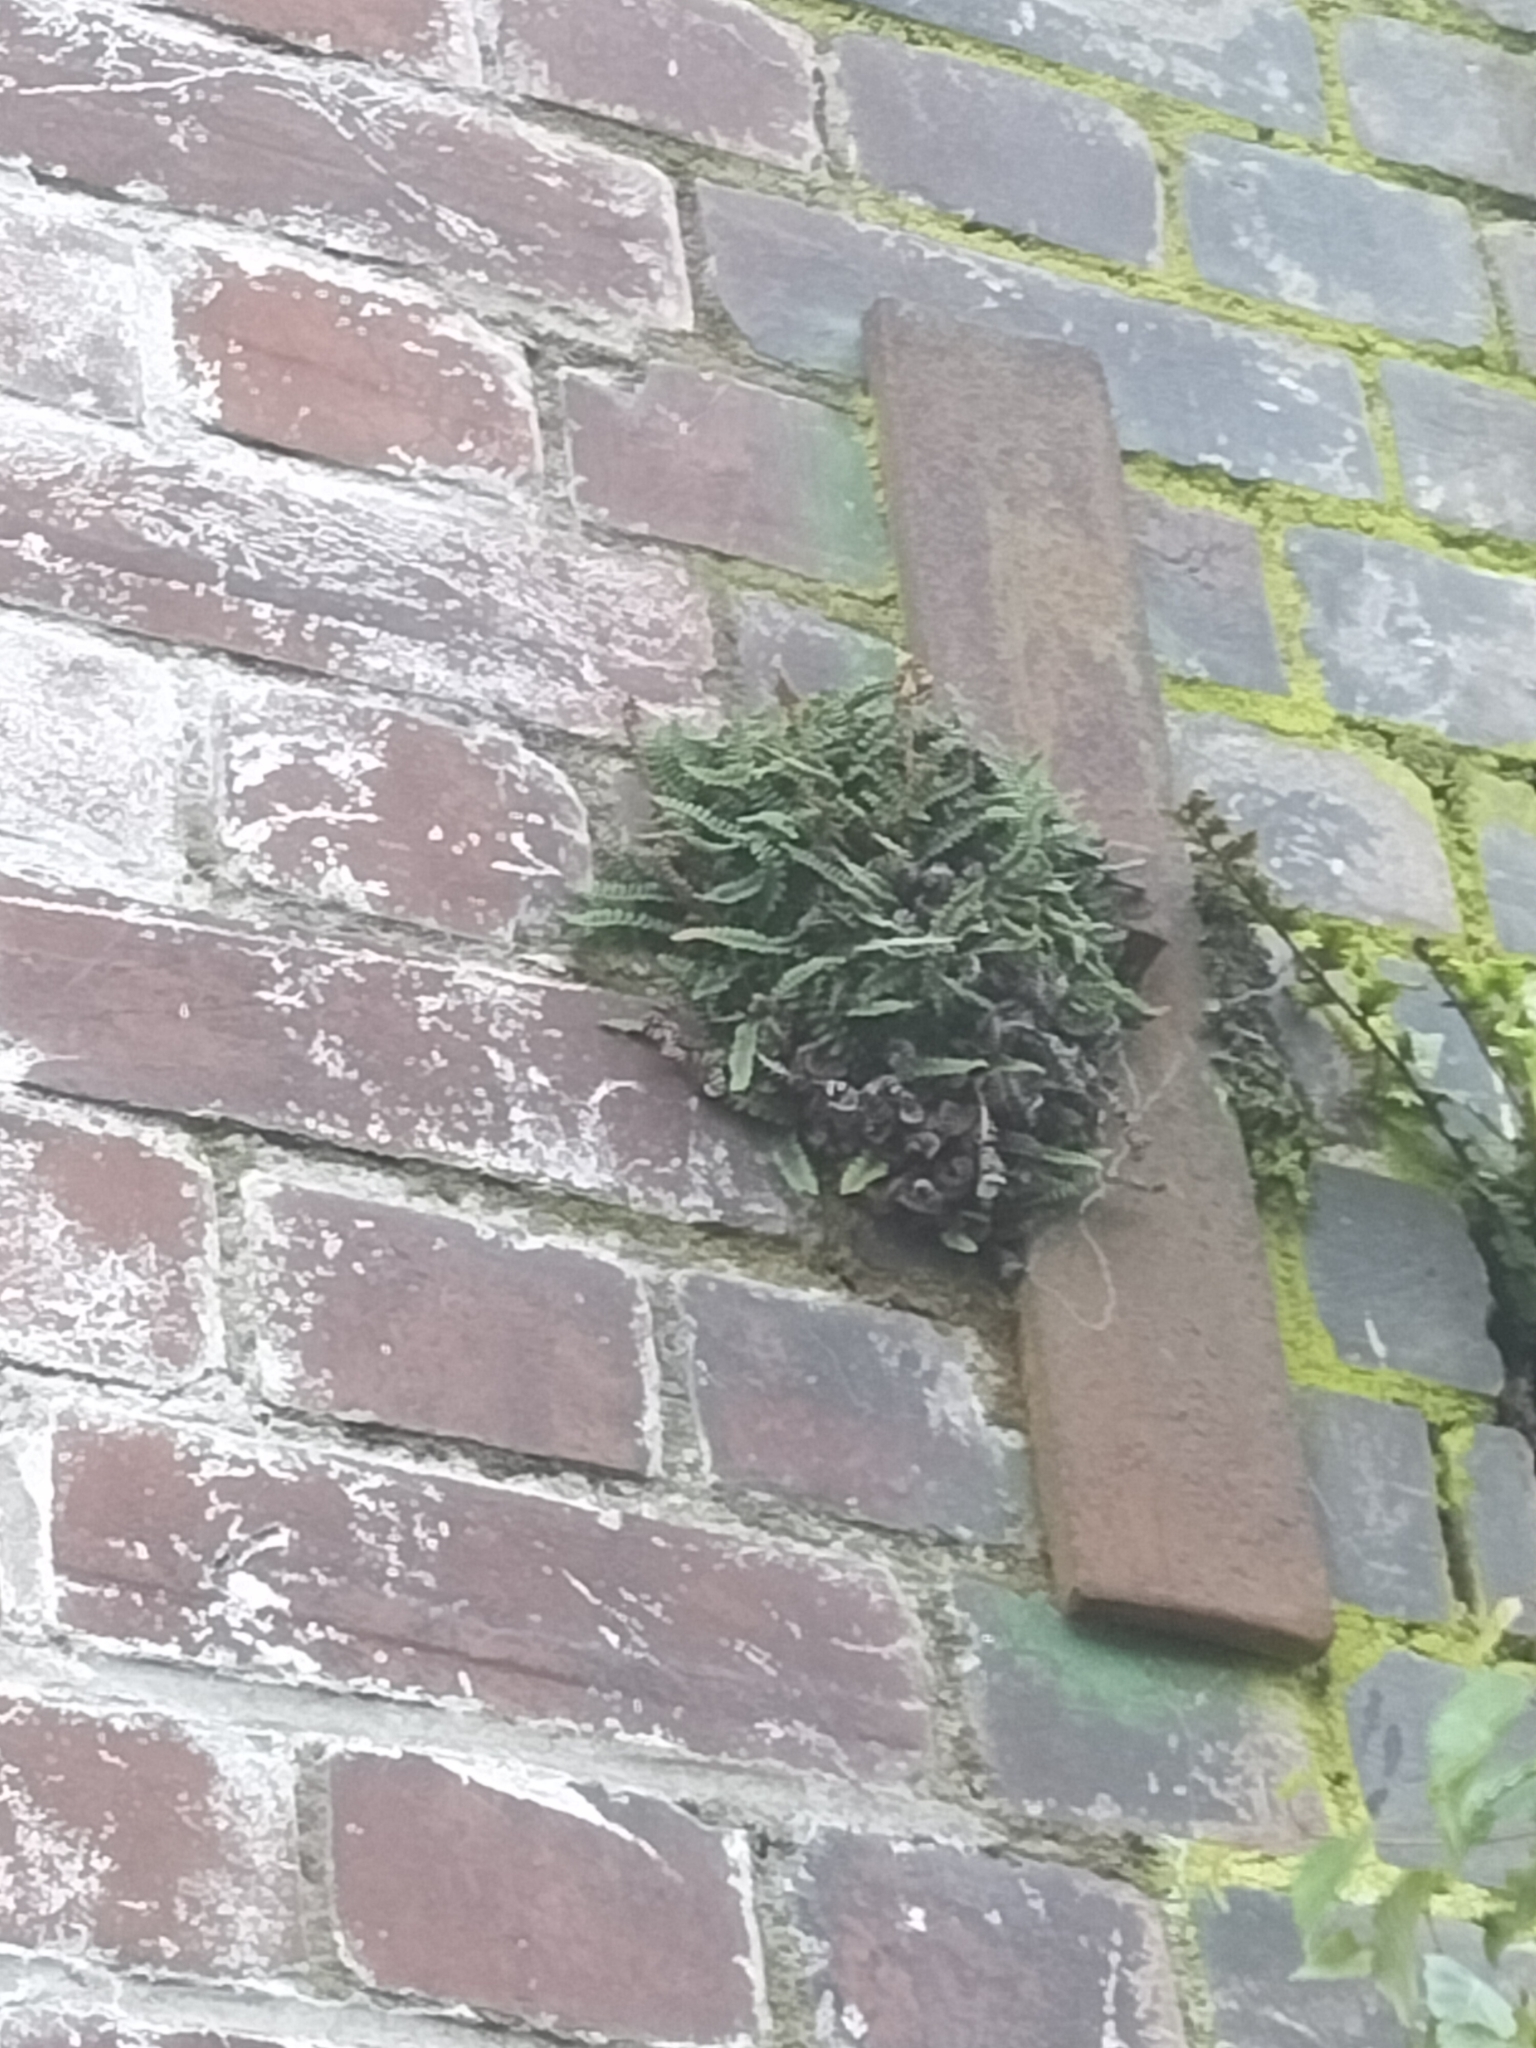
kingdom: Plantae
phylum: Tracheophyta
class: Polypodiopsida
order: Polypodiales
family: Blechnaceae
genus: Austroblechnum
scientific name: Austroblechnum penna-marina
